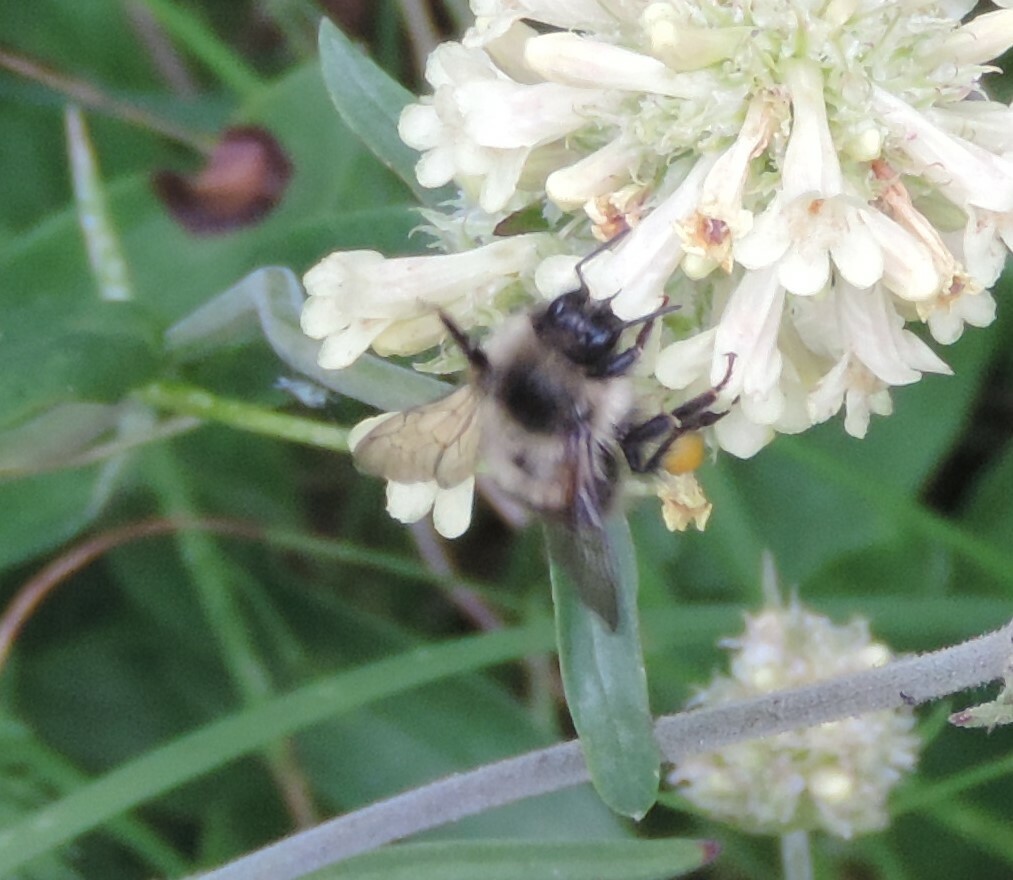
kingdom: Animalia
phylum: Arthropoda
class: Insecta
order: Hymenoptera
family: Apidae
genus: Bombus
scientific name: Bombus mixtus
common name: Fuzzy-horned bumble bee
